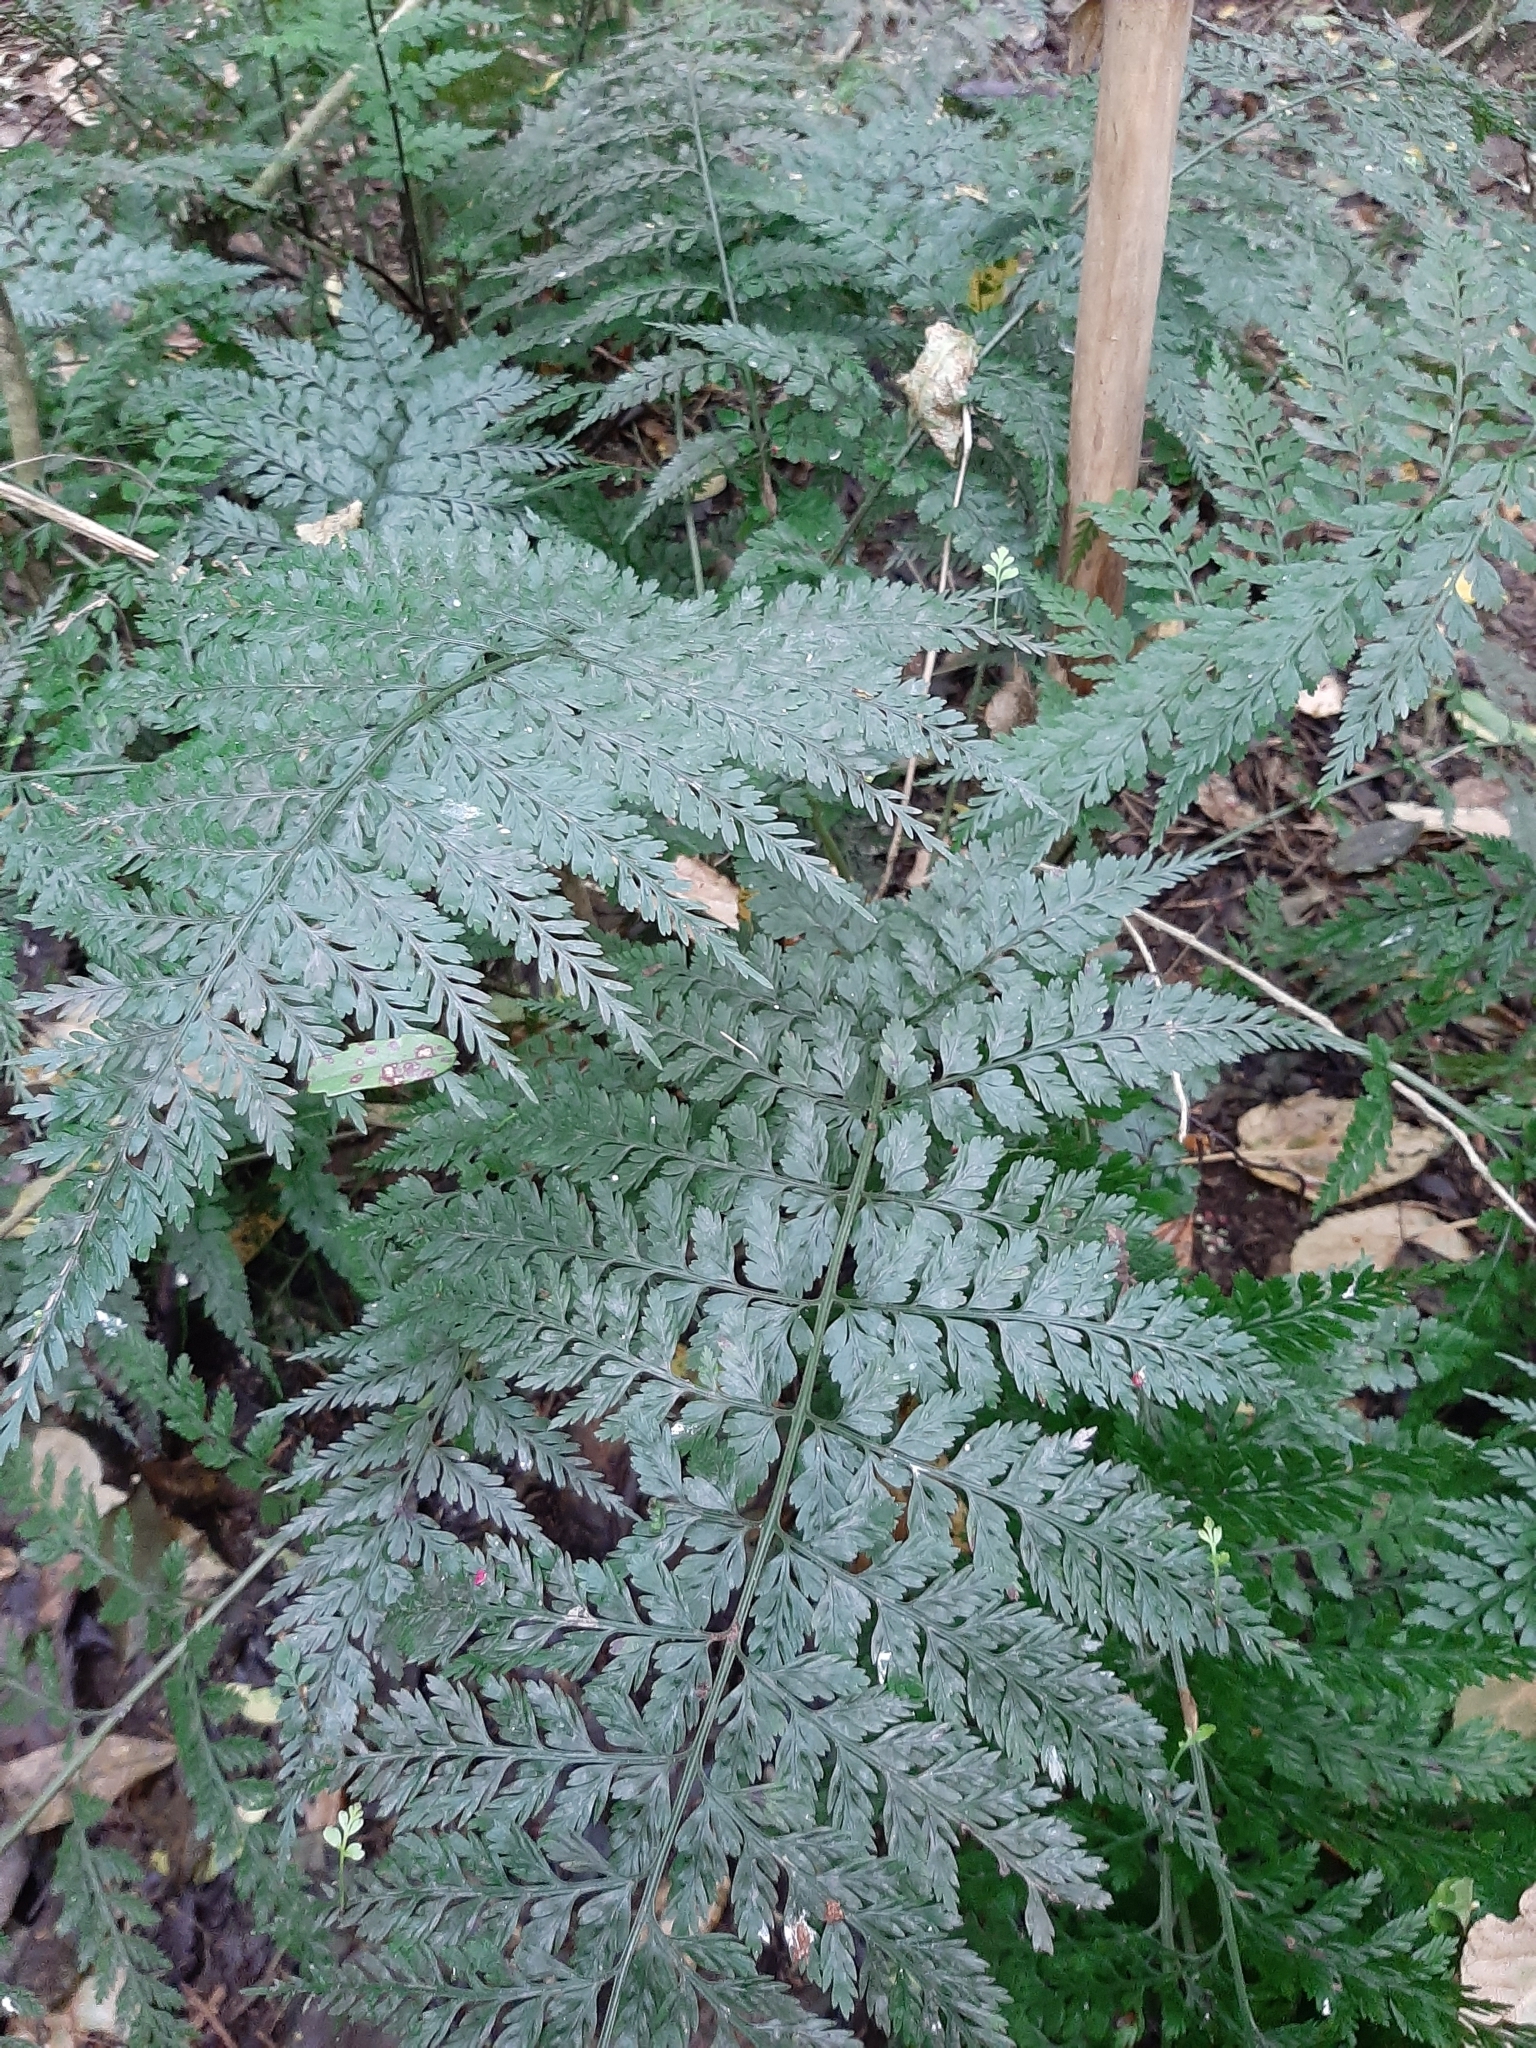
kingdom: Plantae
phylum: Tracheophyta
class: Polypodiopsida
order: Polypodiales
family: Aspleniaceae
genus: Asplenium
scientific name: Asplenium
